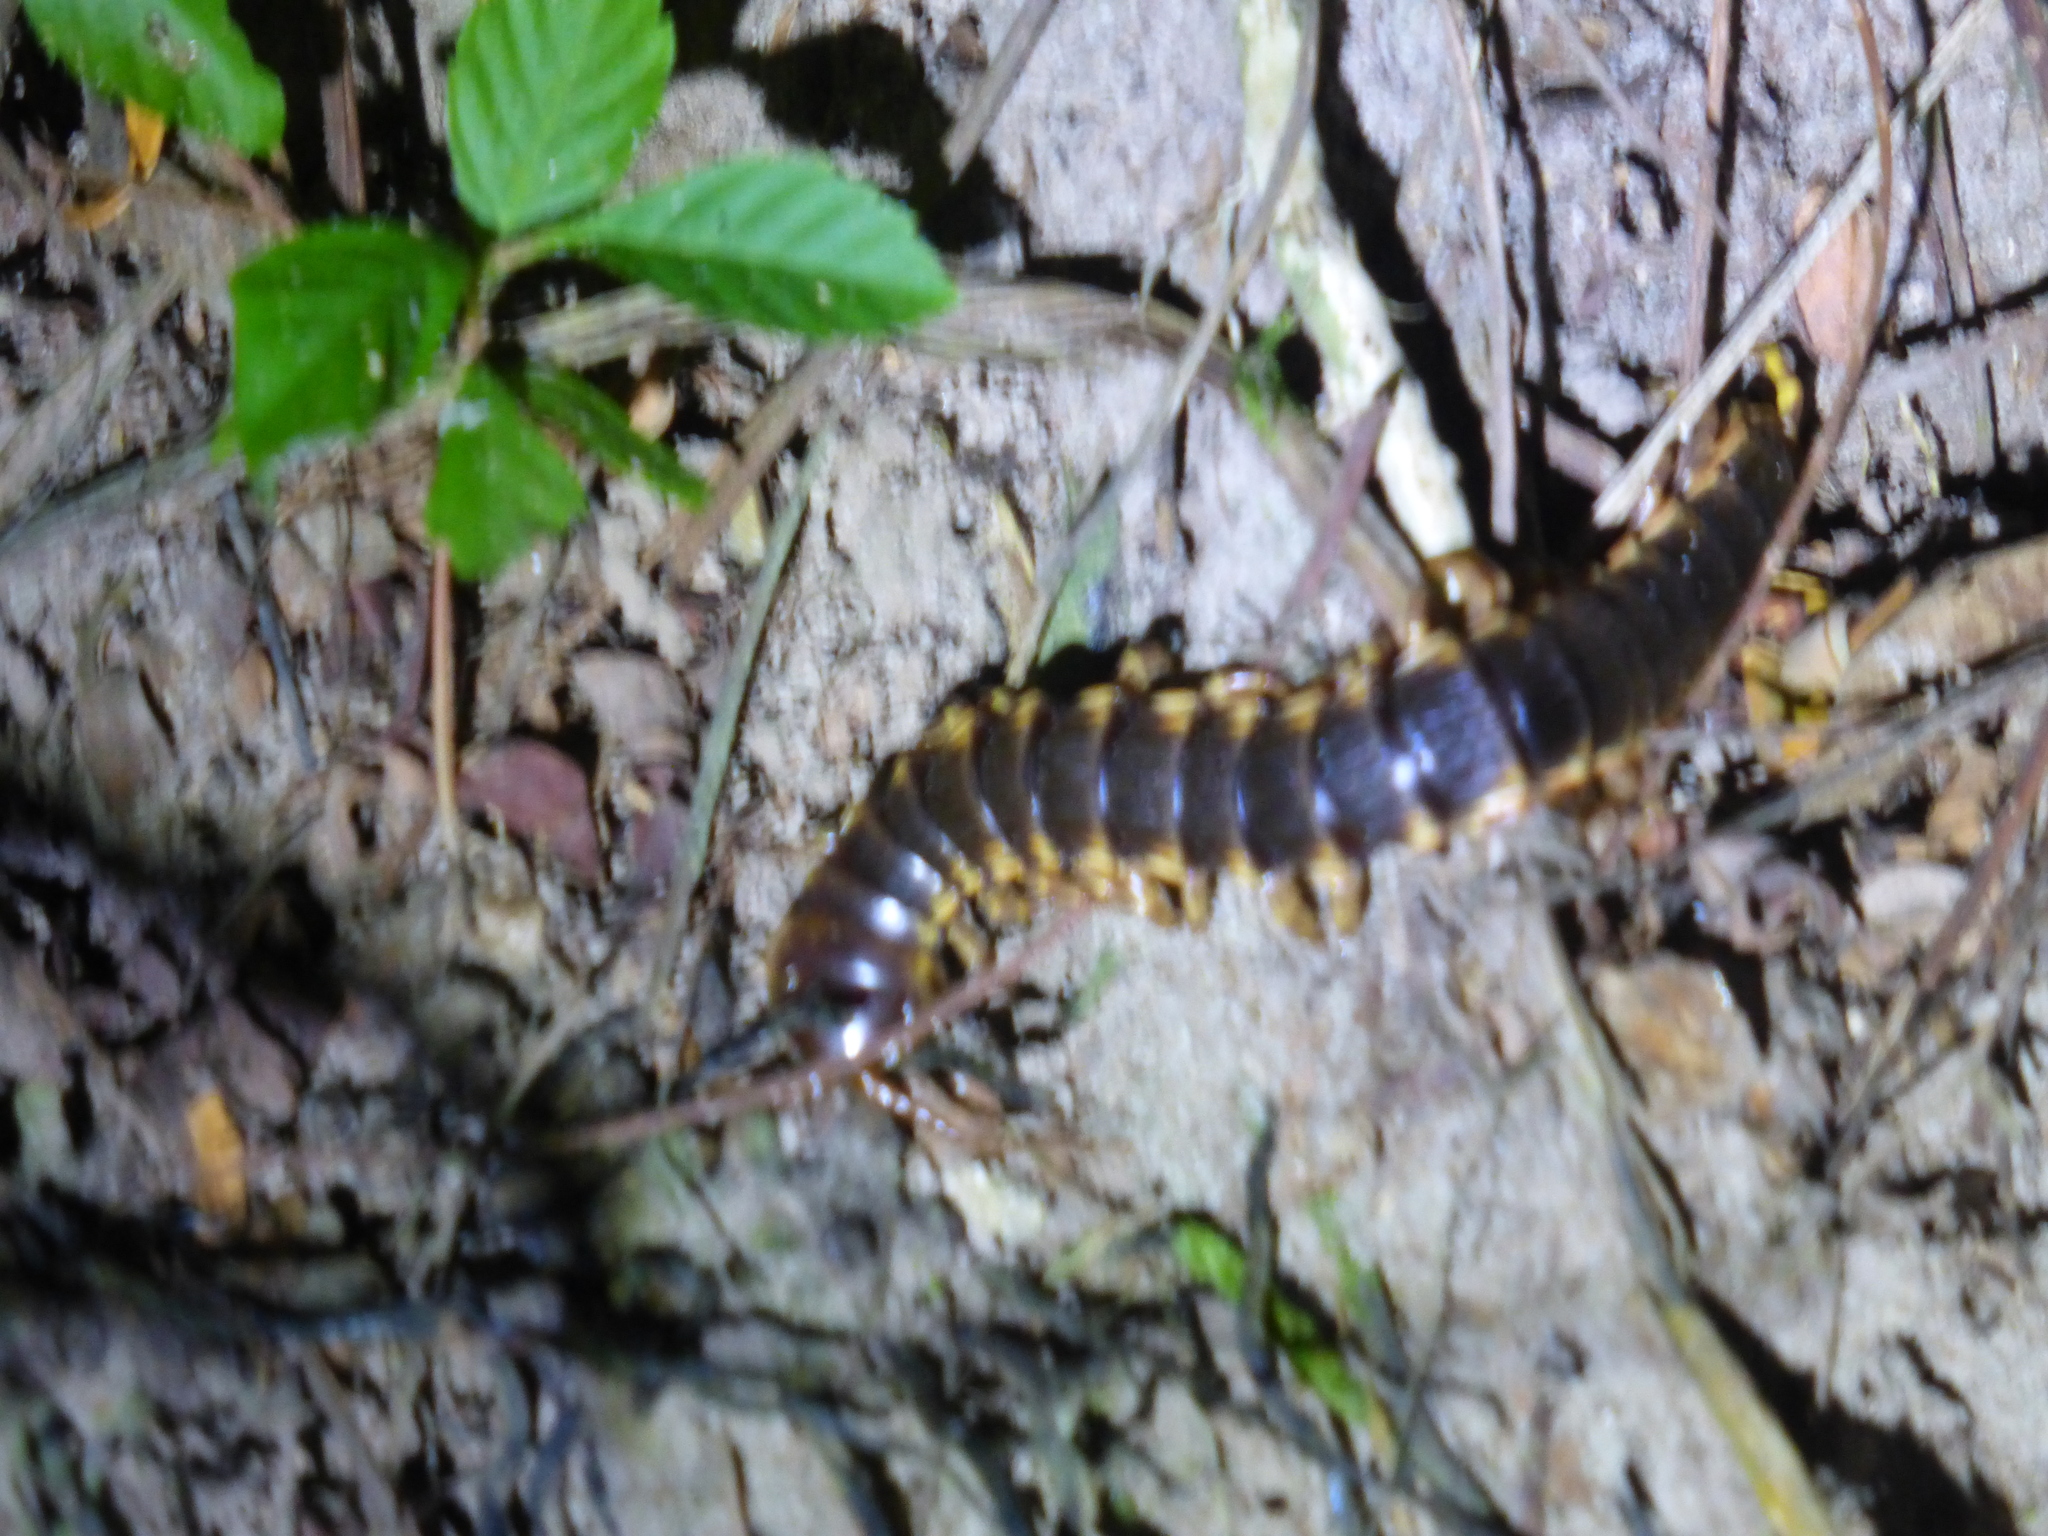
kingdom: Animalia
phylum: Arthropoda
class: Chilopoda
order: Scolopendromorpha
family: Scolopendridae
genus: Edentistoma
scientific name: Edentistoma octosulcatum
